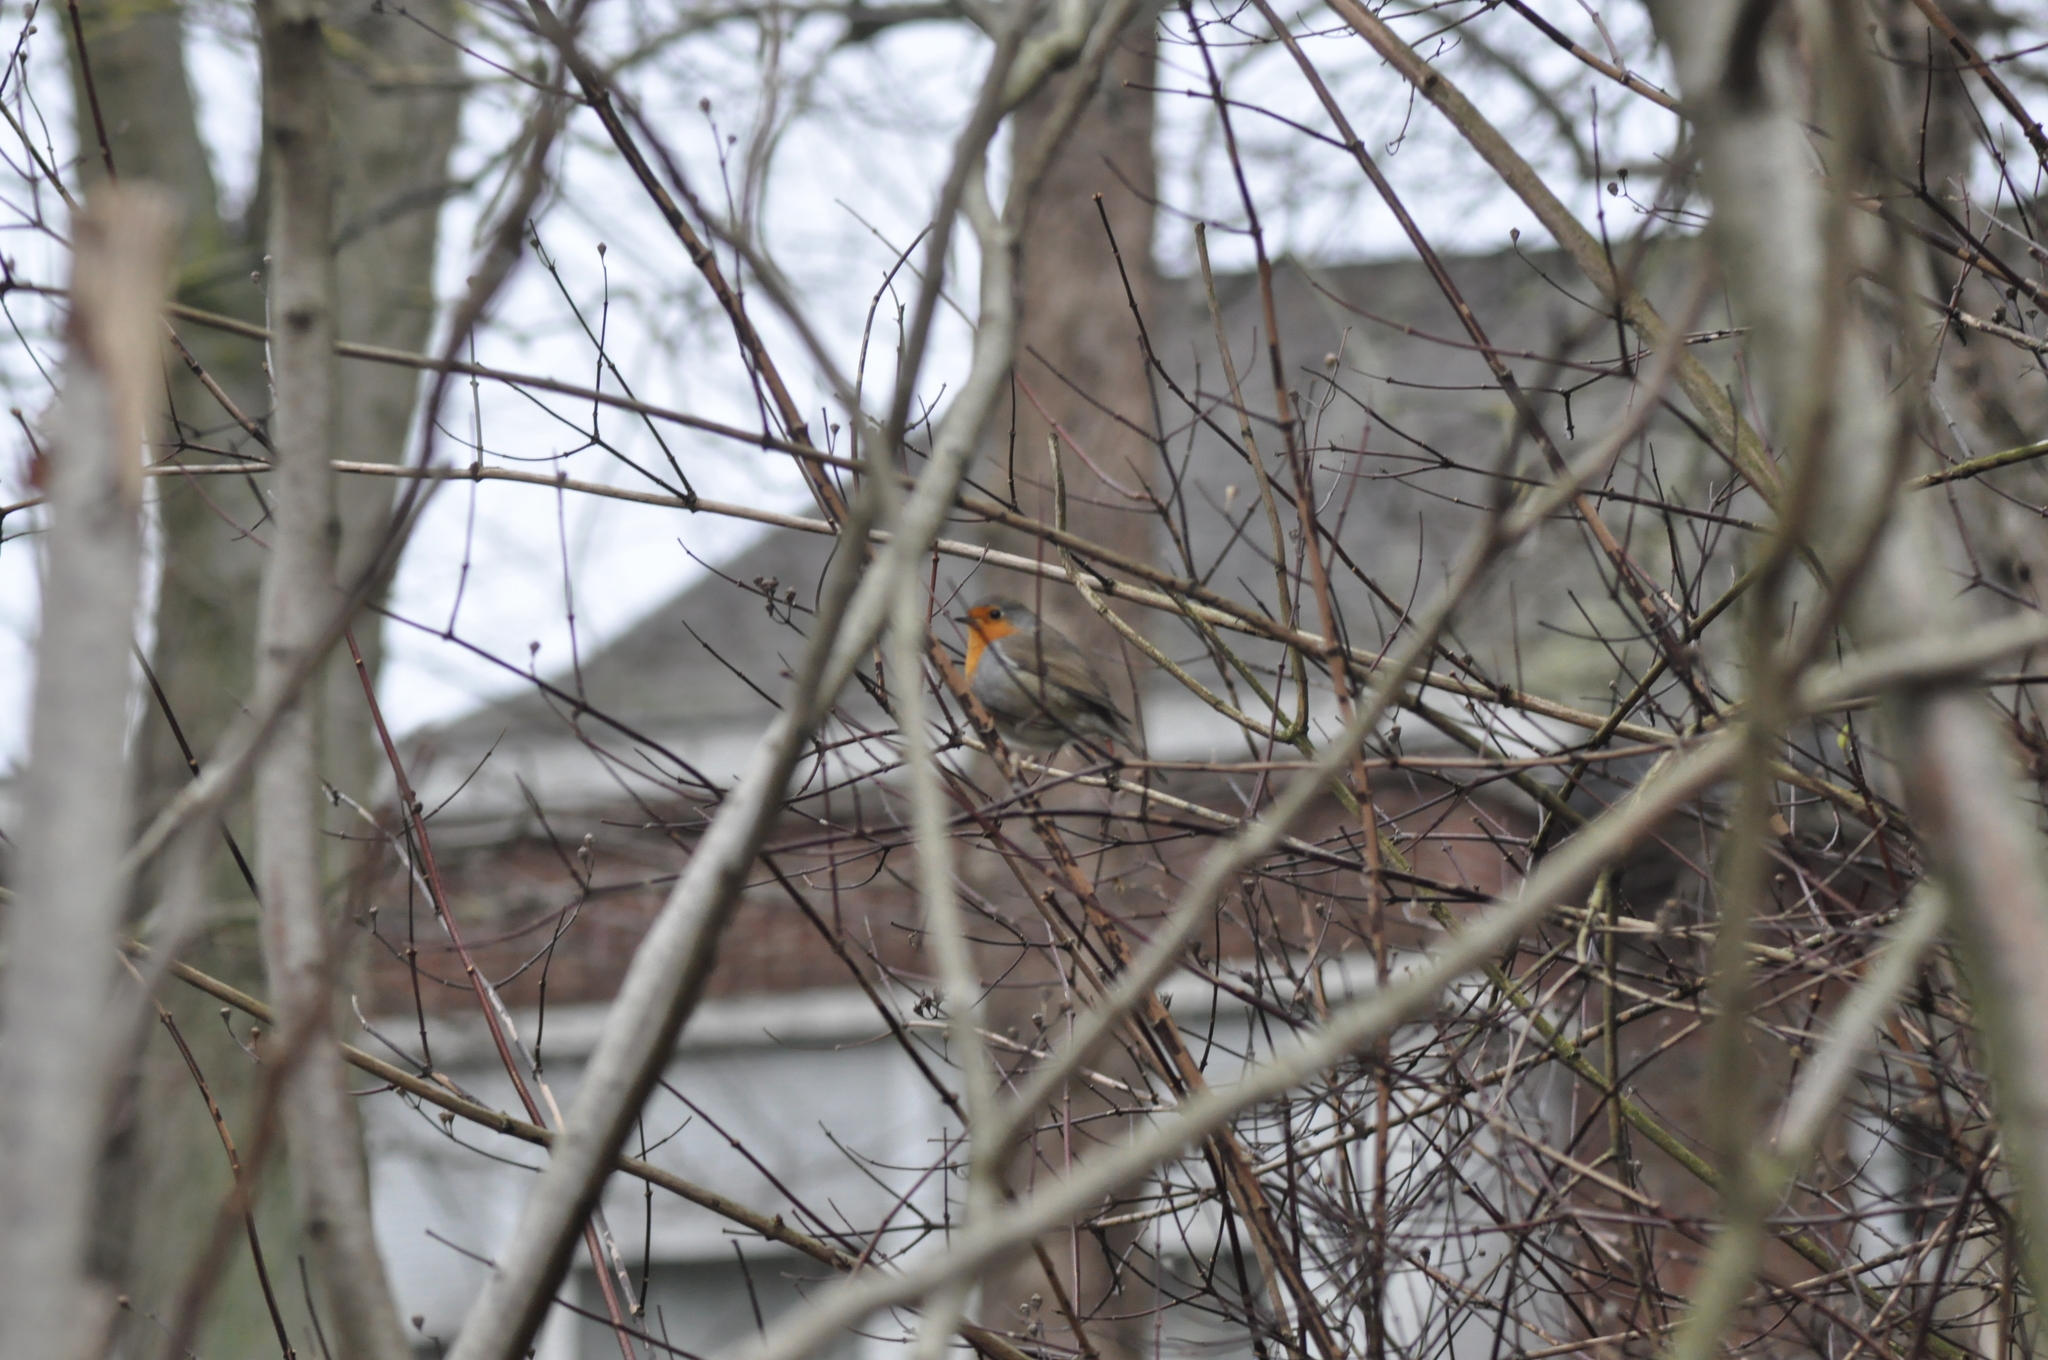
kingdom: Animalia
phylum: Chordata
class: Aves
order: Passeriformes
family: Muscicapidae
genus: Erithacus
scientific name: Erithacus rubecula
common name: European robin
